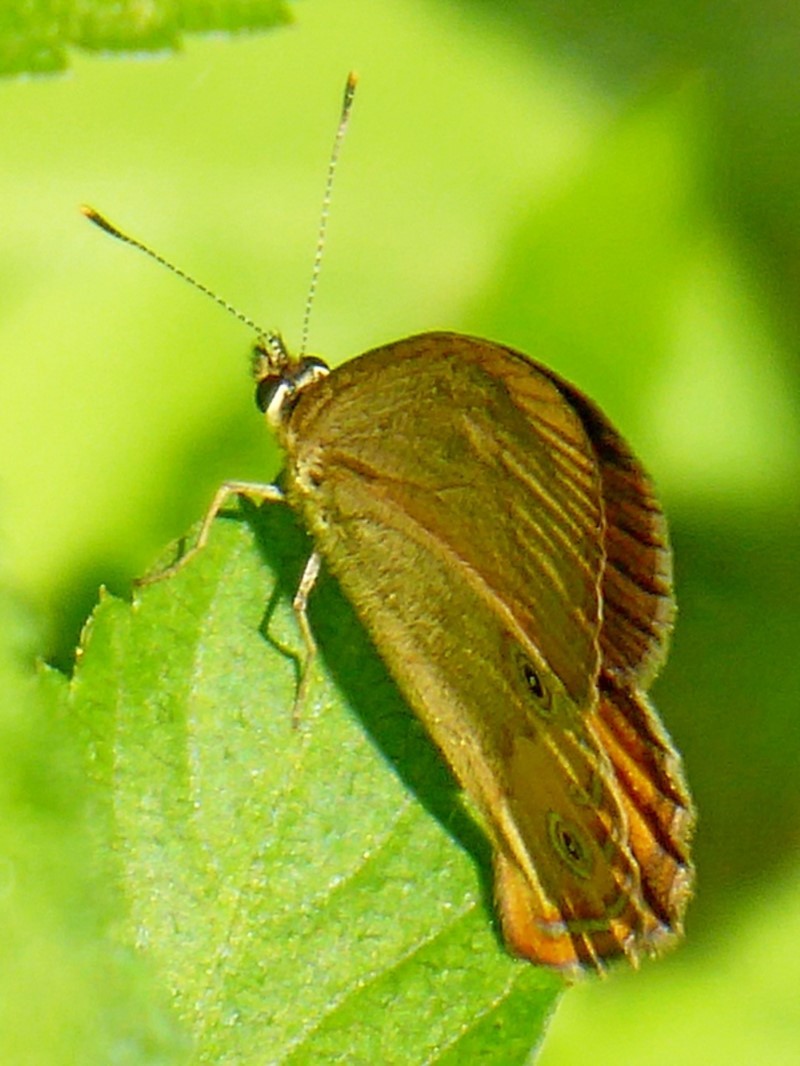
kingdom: Animalia
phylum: Arthropoda
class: Insecta
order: Lepidoptera
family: Nymphalidae
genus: Hypocysta
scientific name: Hypocysta metirius
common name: Brown ringlet
